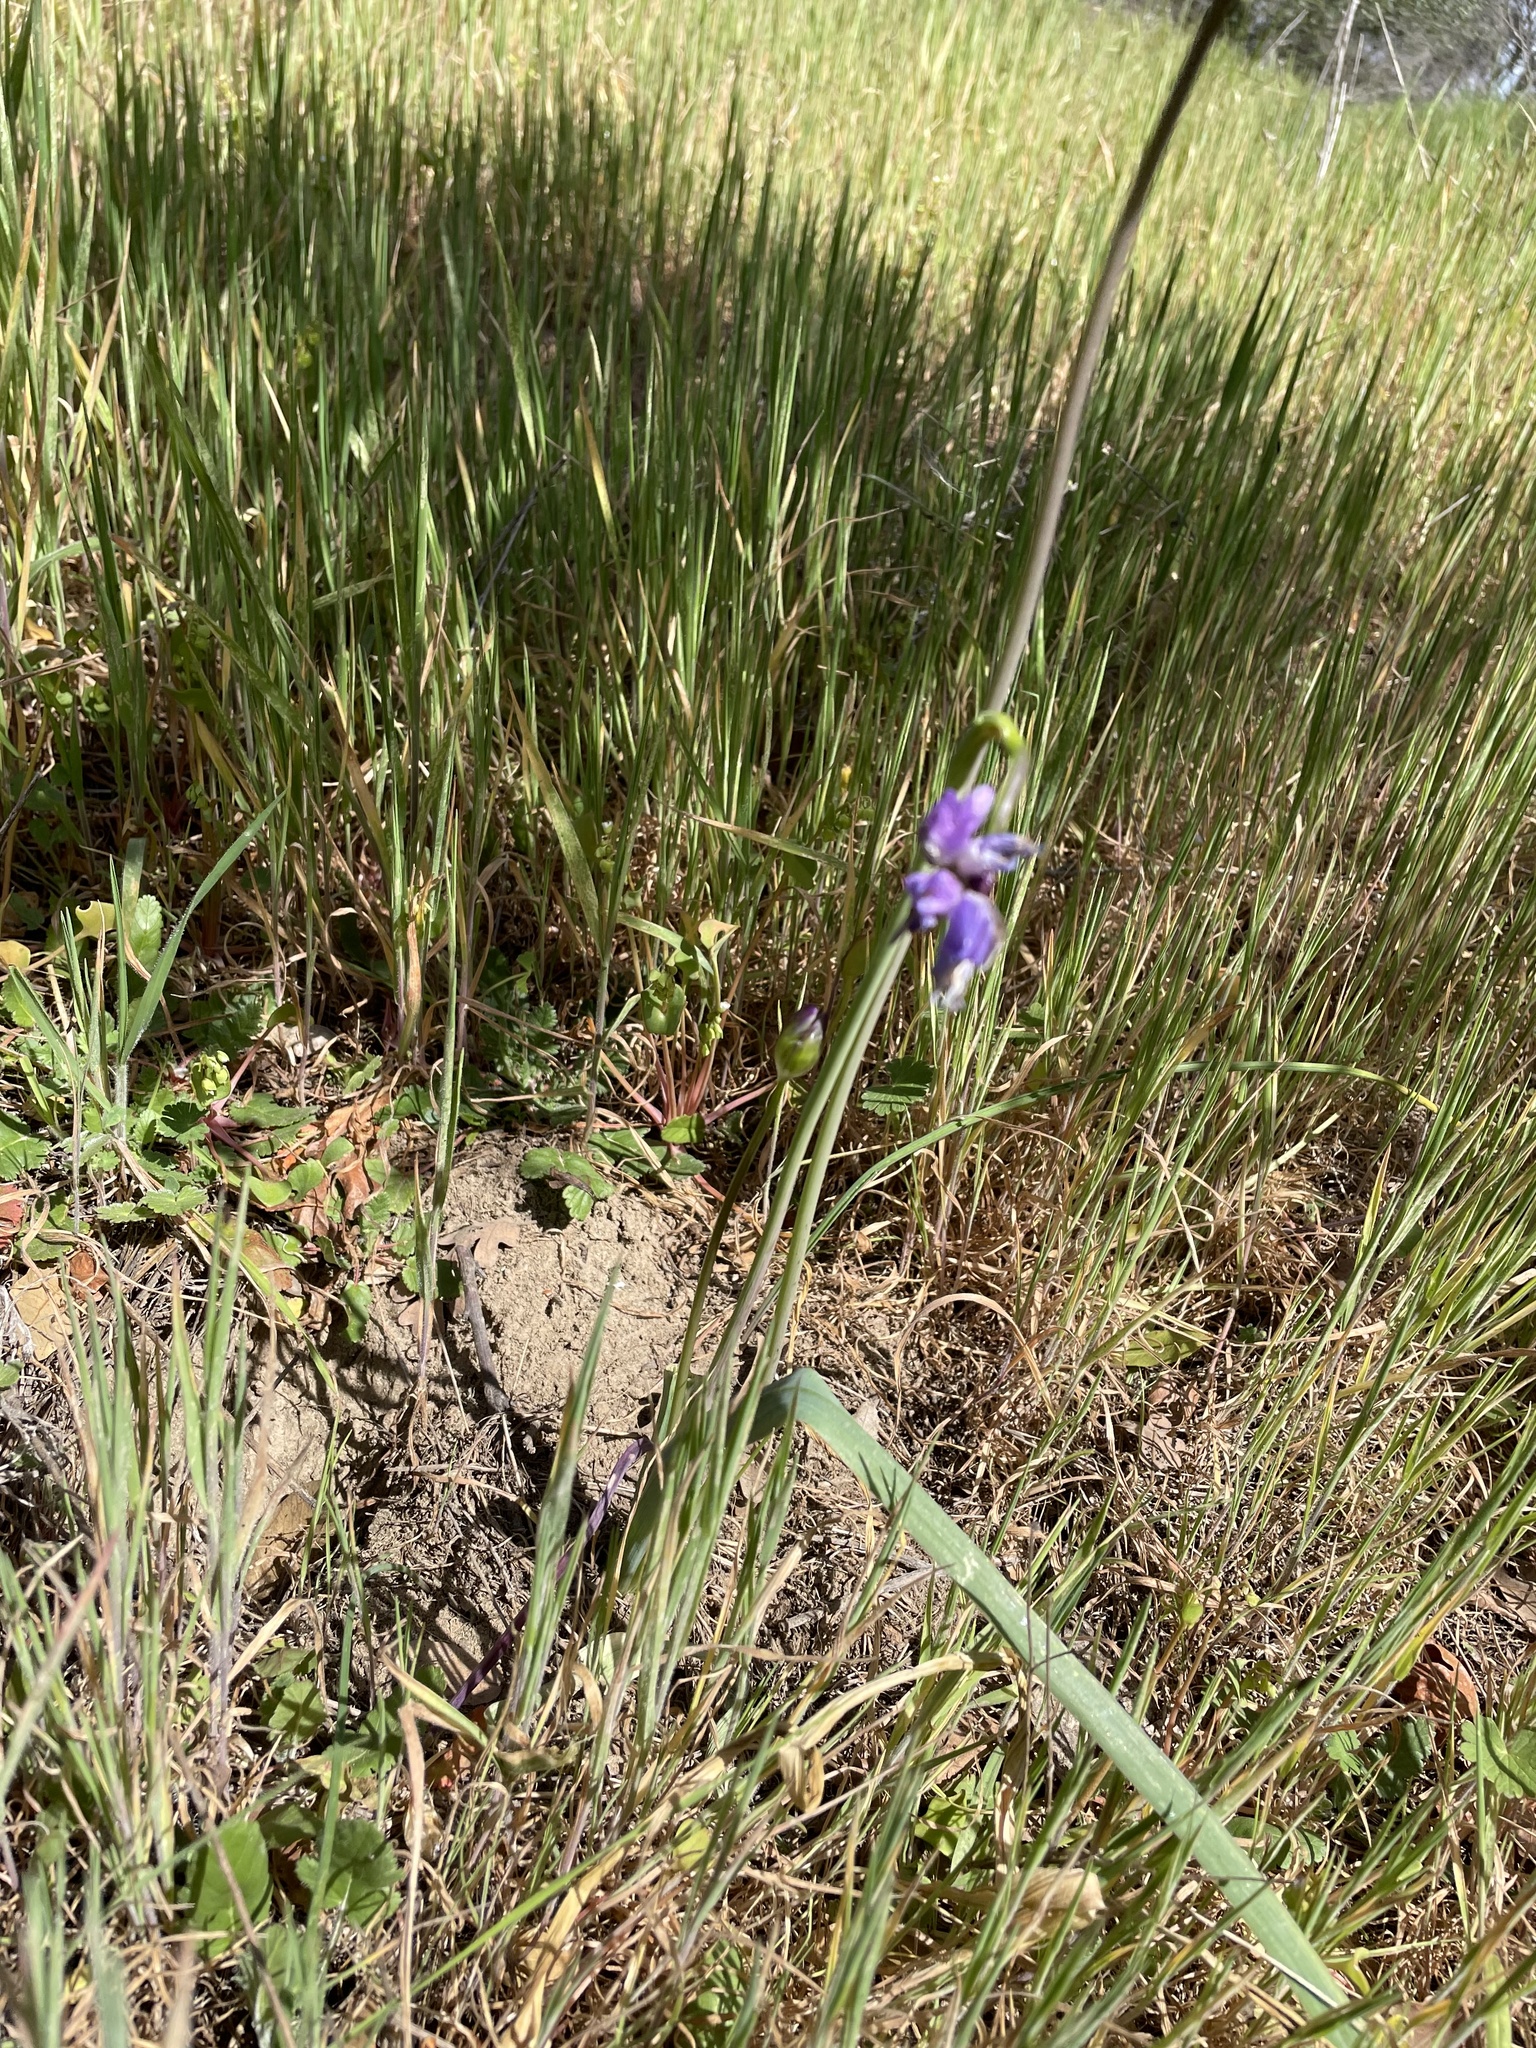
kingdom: Plantae
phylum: Tracheophyta
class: Liliopsida
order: Asparagales
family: Asparagaceae
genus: Dipterostemon
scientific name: Dipterostemon capitatus
